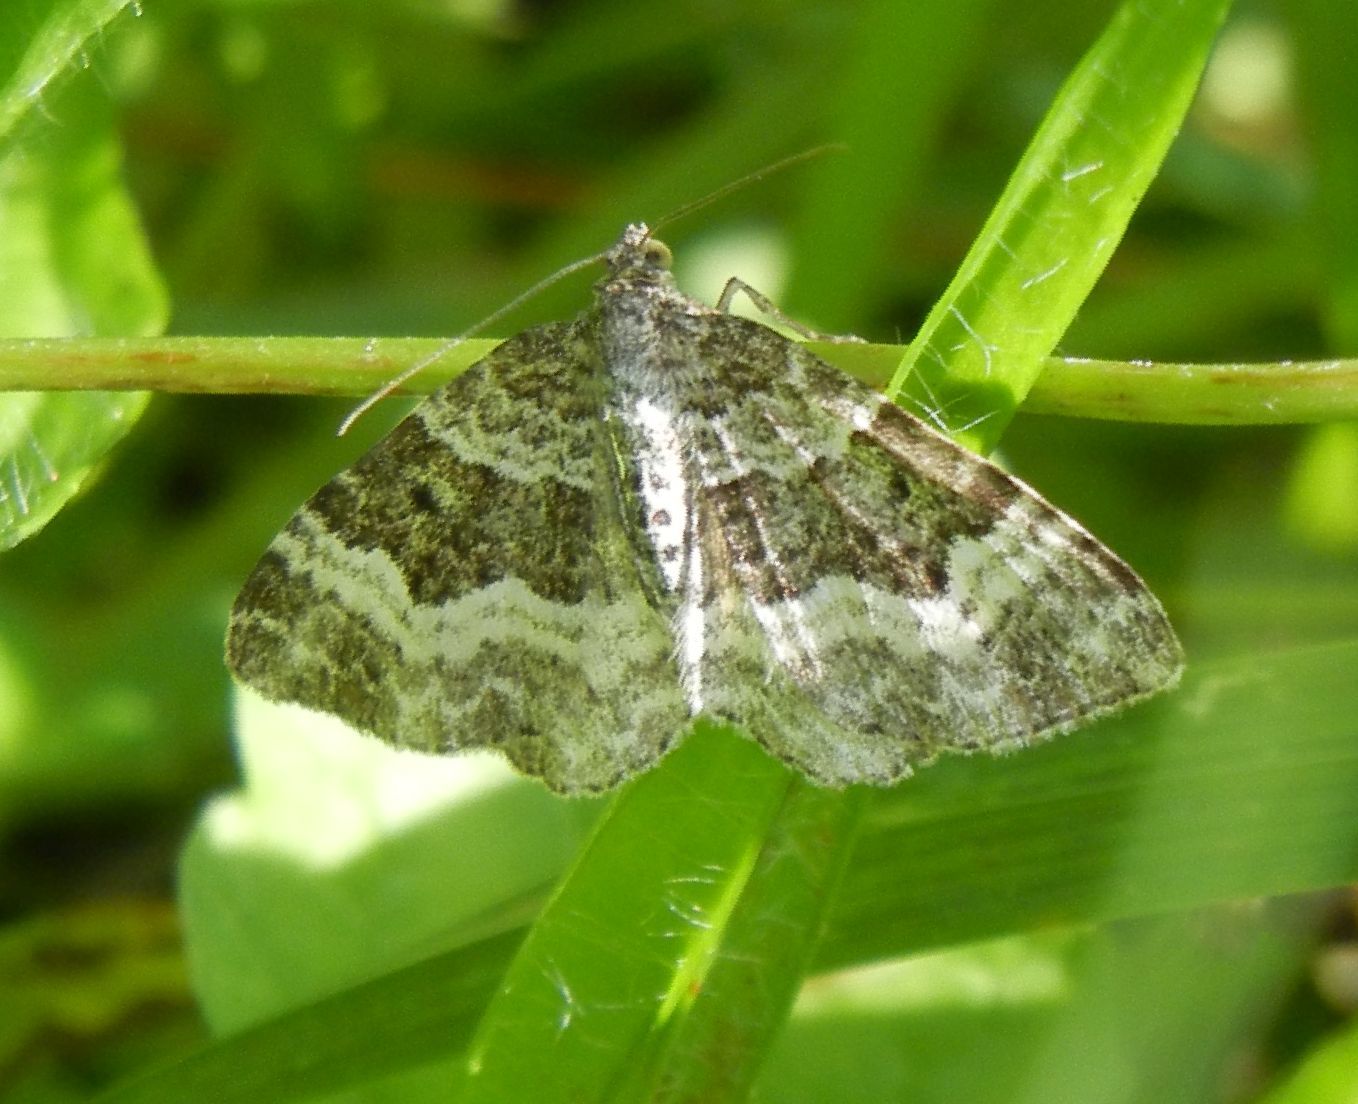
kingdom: Animalia
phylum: Arthropoda
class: Insecta
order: Lepidoptera
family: Geometridae
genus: Epirrhoe
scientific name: Epirrhoe alternata
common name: Common carpet
